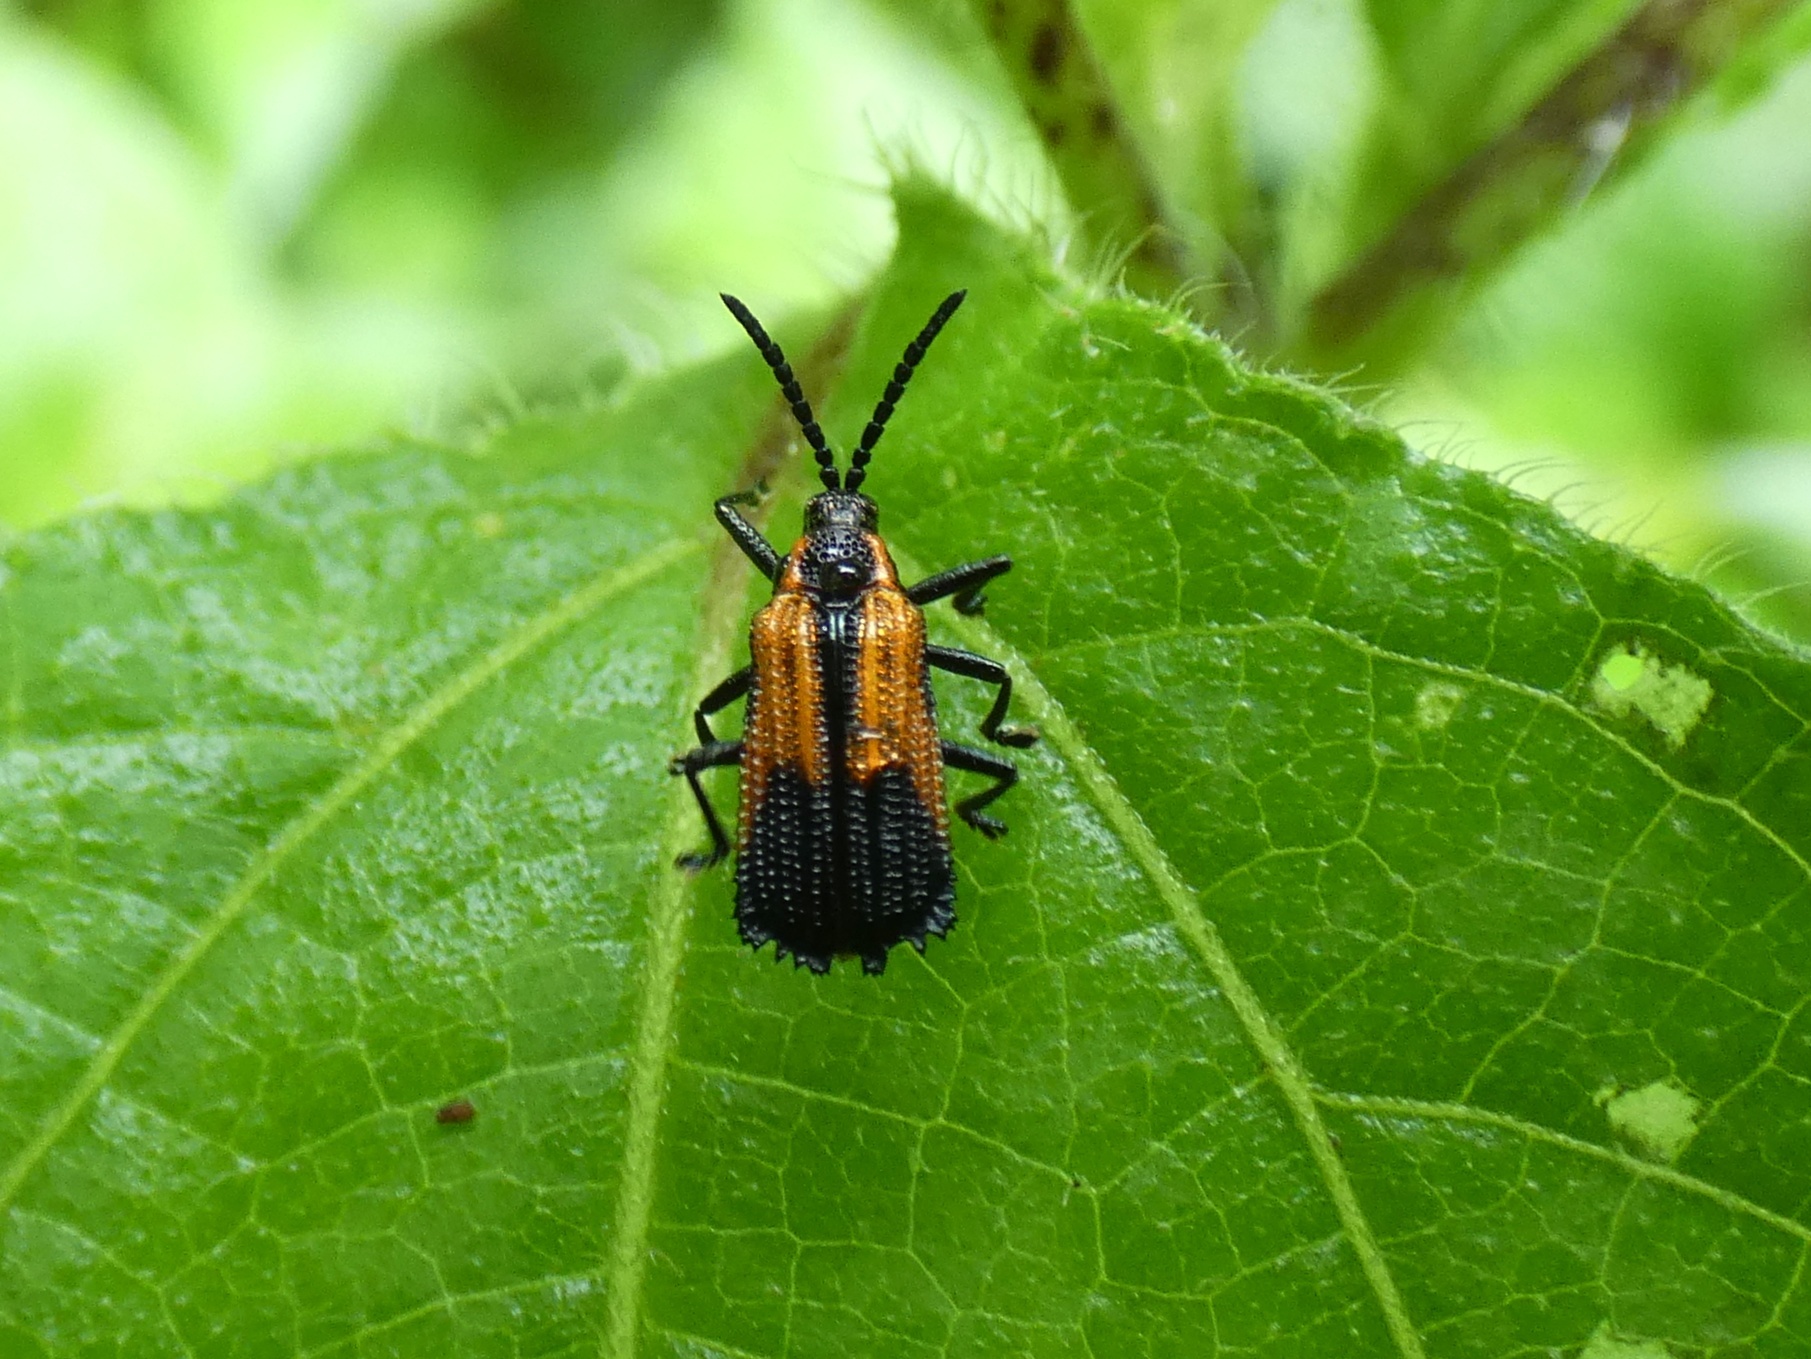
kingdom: Animalia
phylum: Arthropoda
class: Insecta
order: Coleoptera
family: Chrysomelidae
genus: Pentispa
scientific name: Pentispa clarkella
